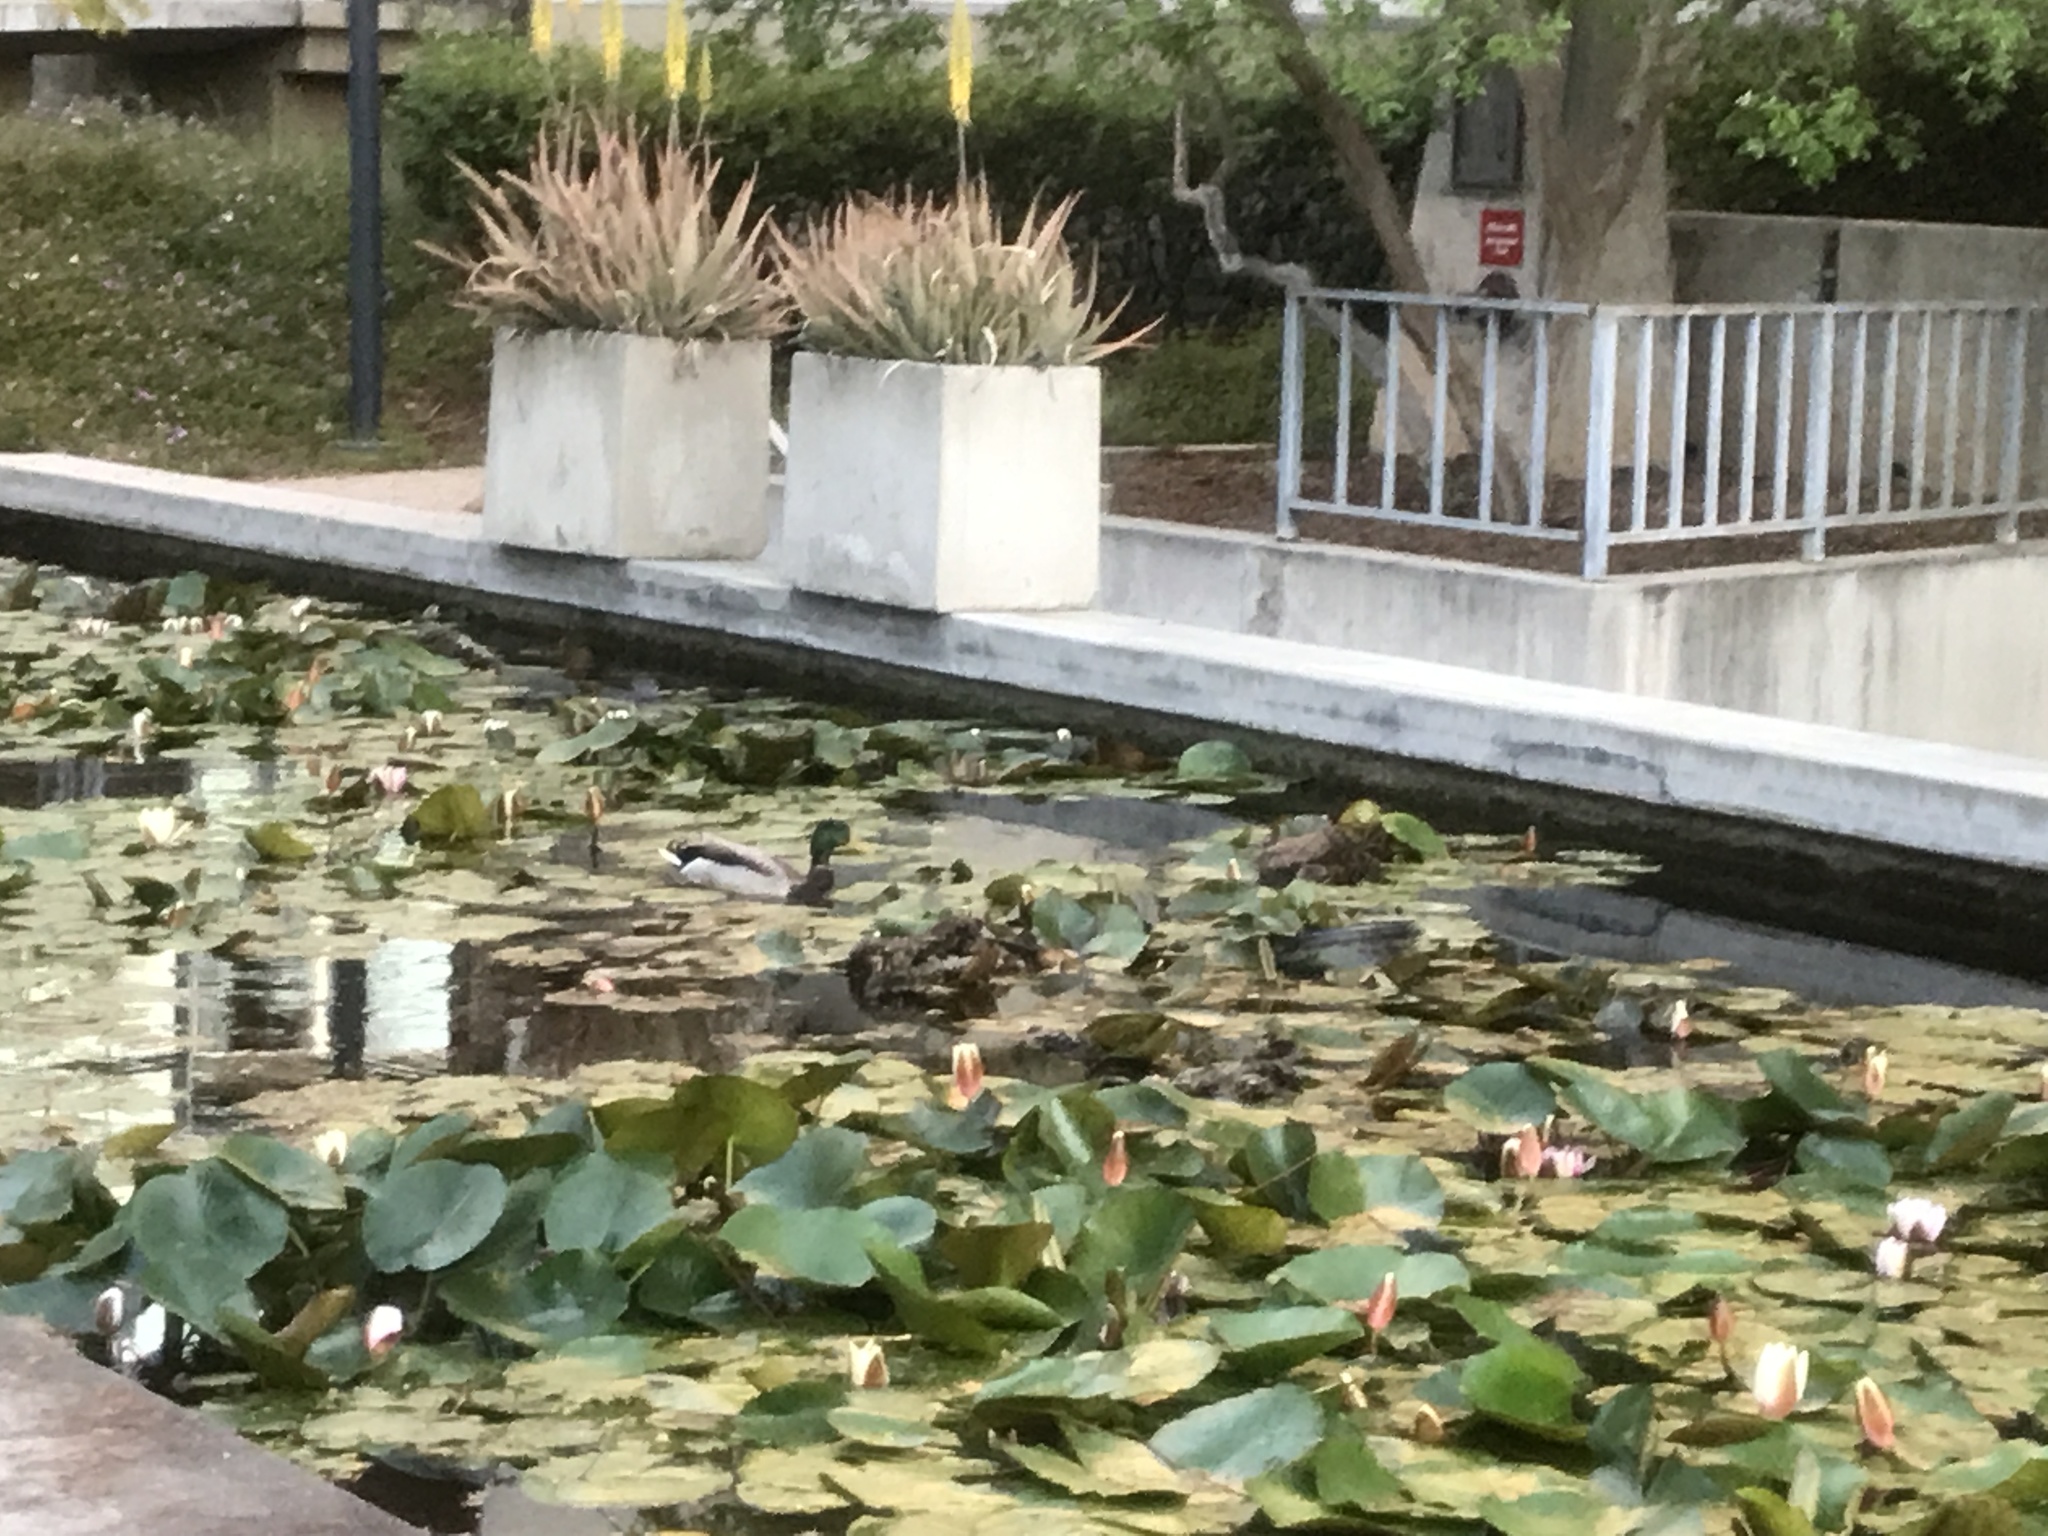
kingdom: Animalia
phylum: Chordata
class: Aves
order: Anseriformes
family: Anatidae
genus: Anas
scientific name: Anas platyrhynchos
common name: Mallard
